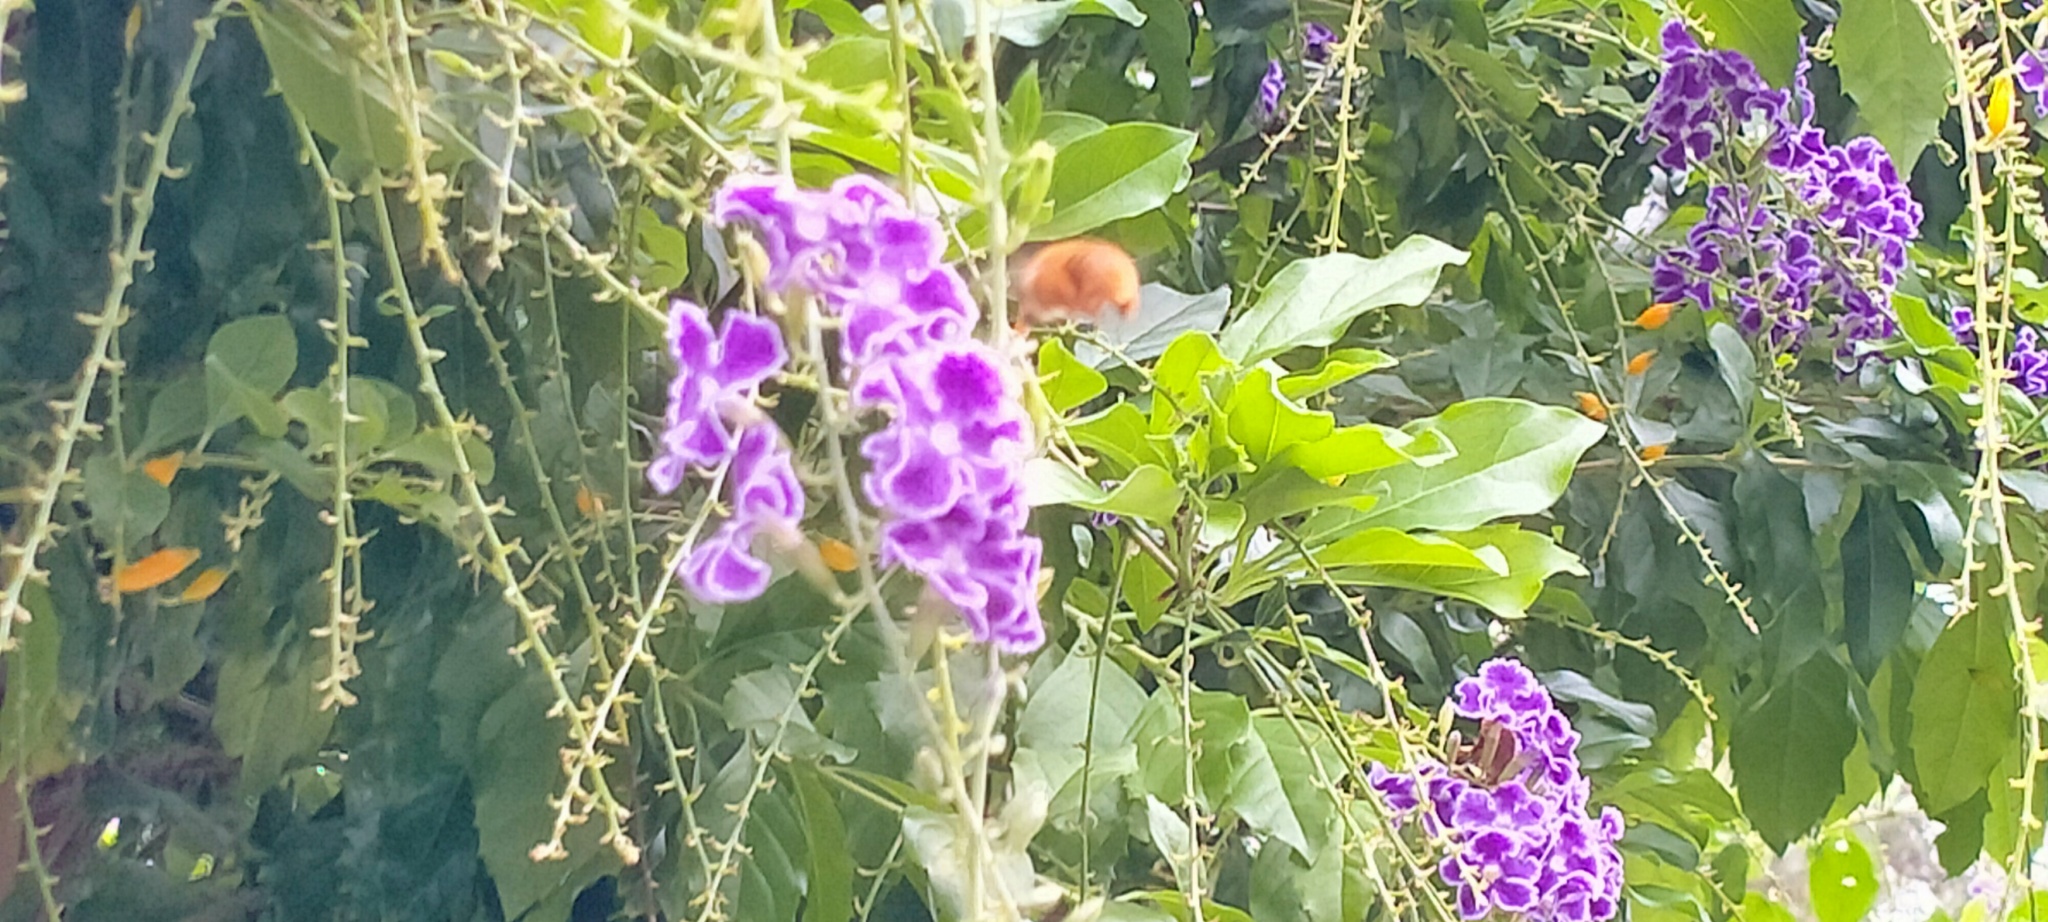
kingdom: Animalia
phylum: Arthropoda
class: Insecta
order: Hymenoptera
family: Apidae
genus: Amegilla
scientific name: Amegilla bombiformis
